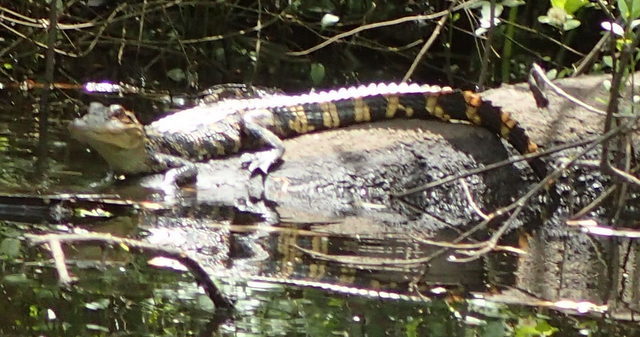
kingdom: Animalia
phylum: Chordata
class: Crocodylia
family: Alligatoridae
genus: Alligator
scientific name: Alligator mississippiensis
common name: American alligator
